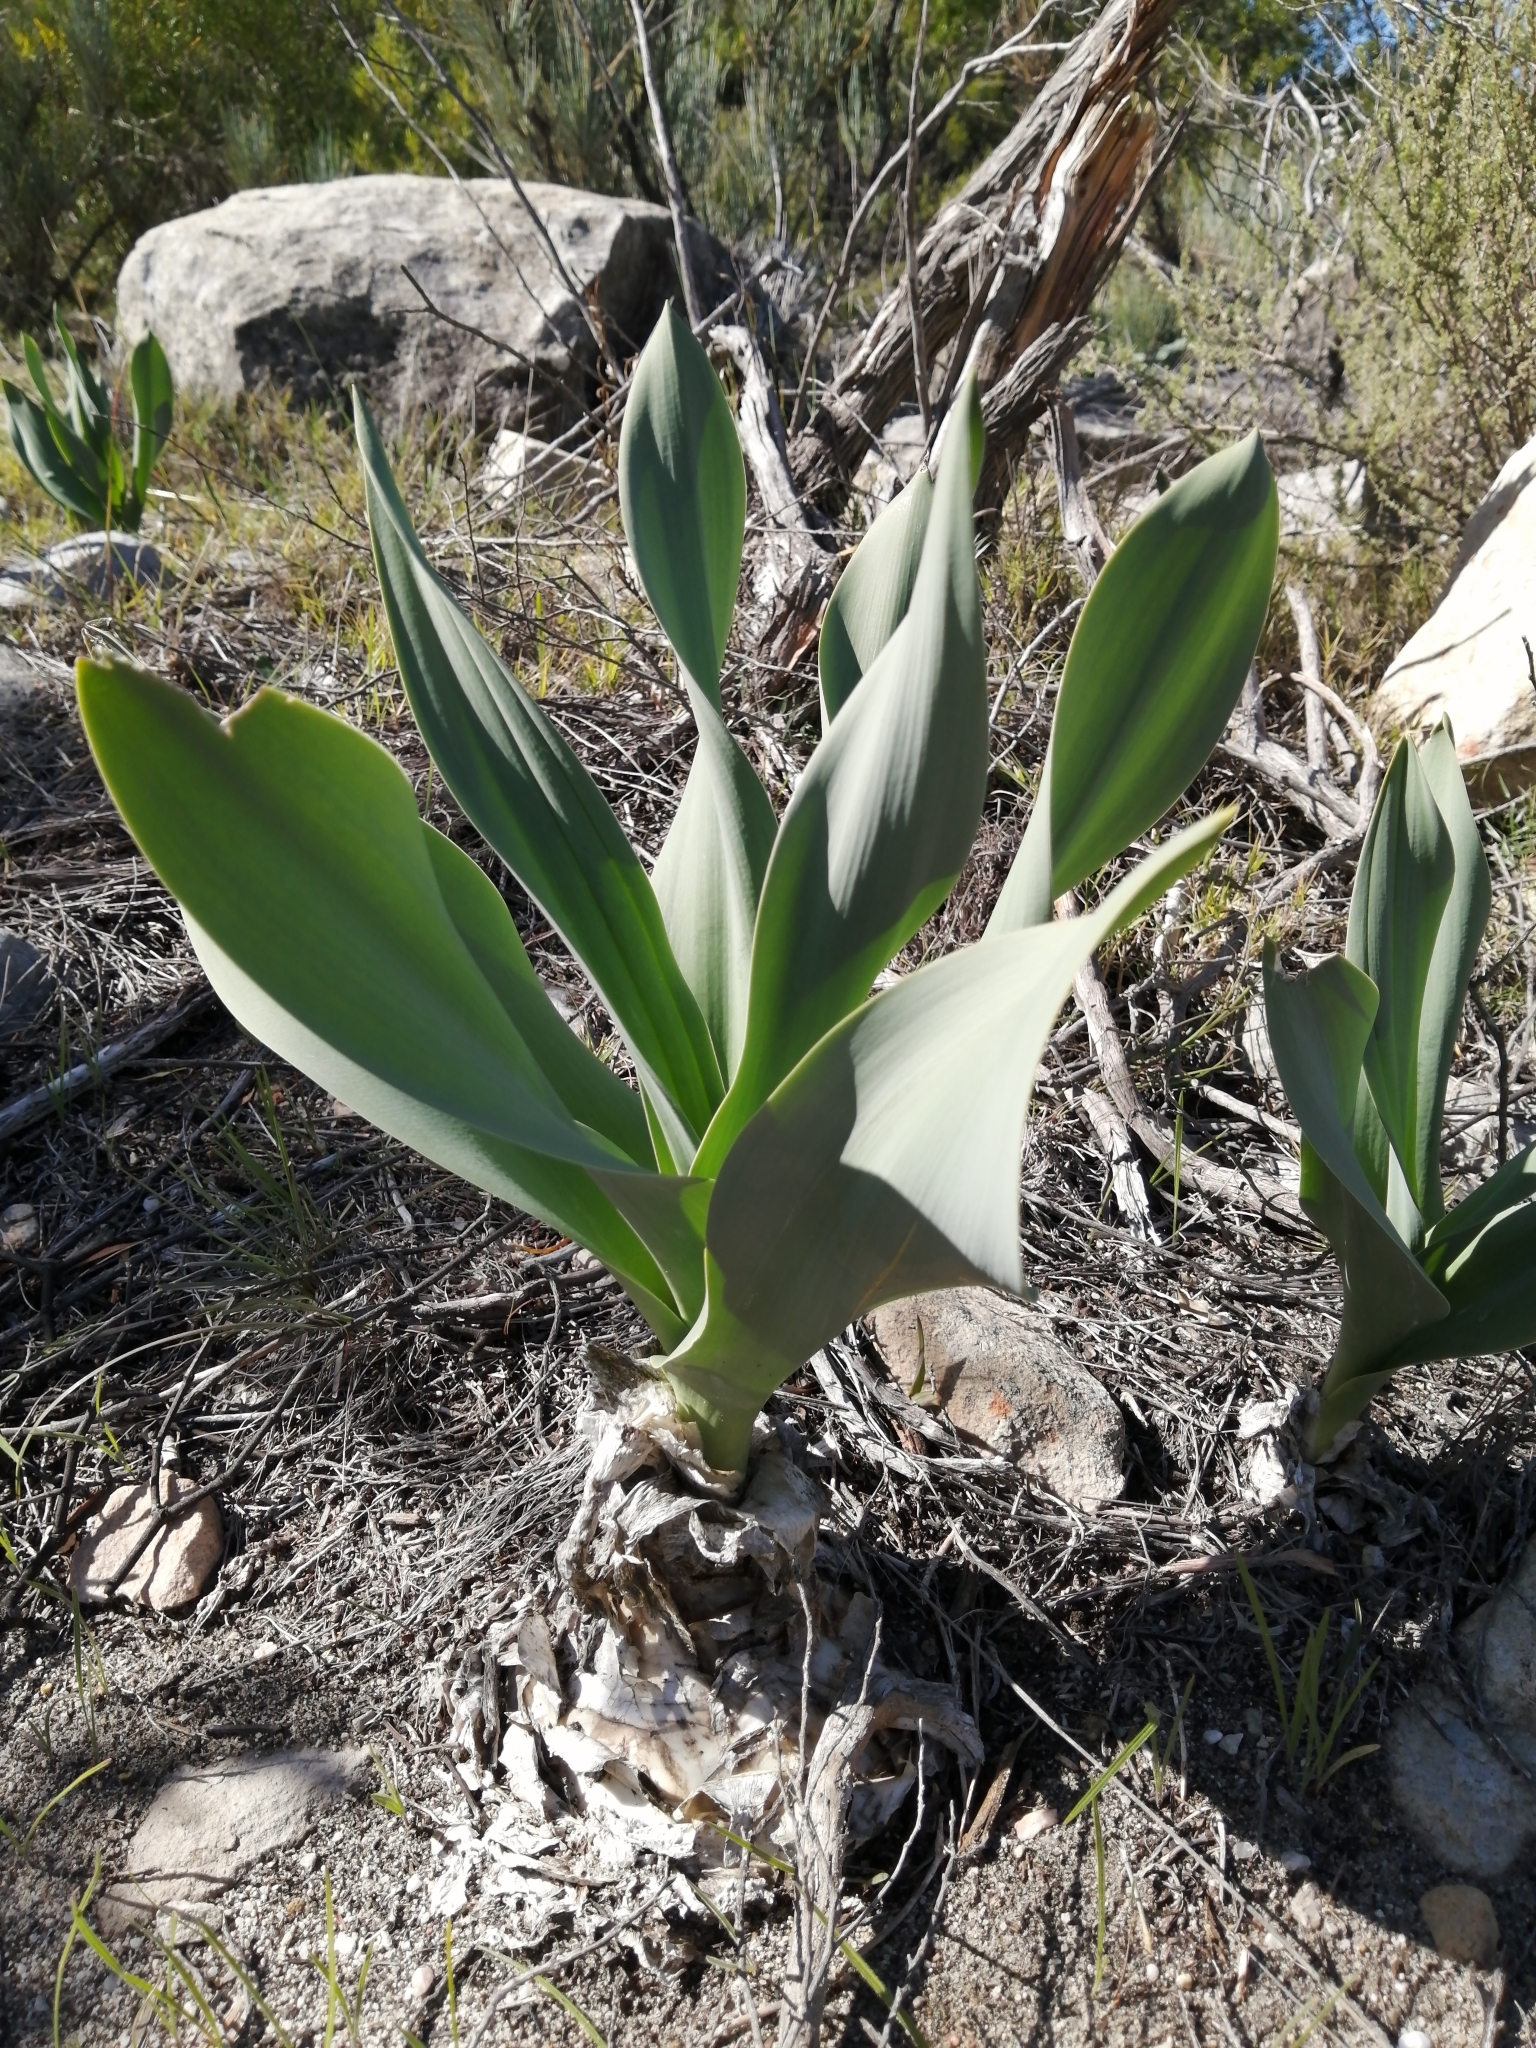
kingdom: Plantae
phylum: Tracheophyta
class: Liliopsida
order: Asparagales
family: Asparagaceae
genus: Drimia
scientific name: Drimia capensis
